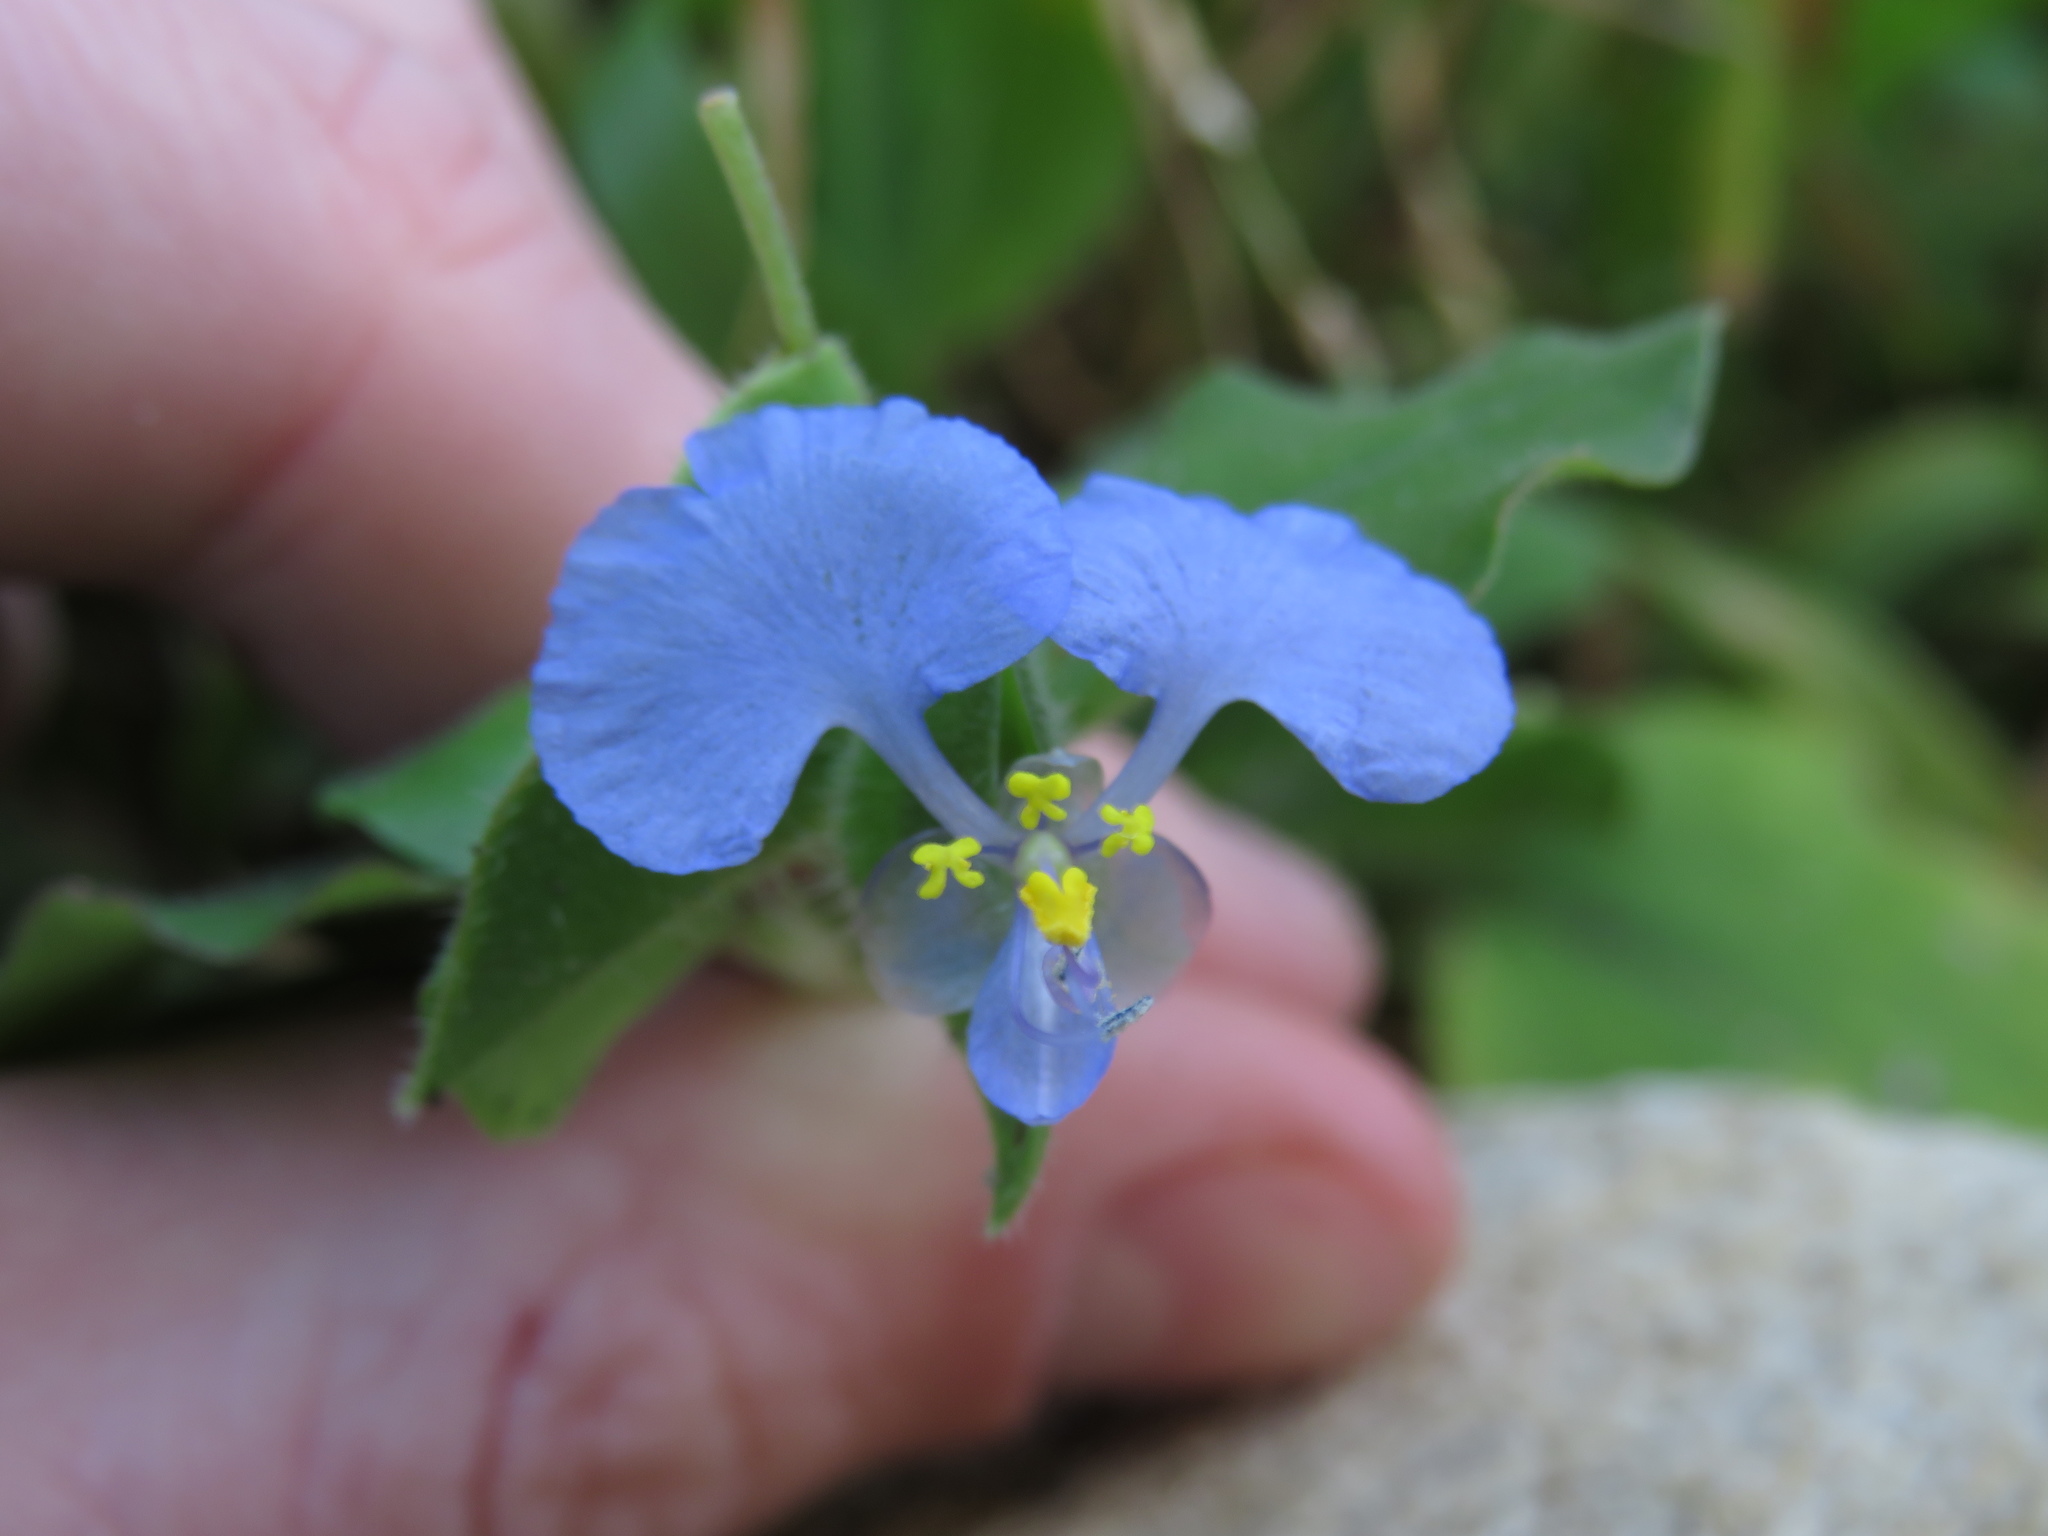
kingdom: Plantae
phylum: Tracheophyta
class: Liliopsida
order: Commelinales
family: Commelinaceae
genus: Commelina
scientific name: Commelina benghalensis
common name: Jio
